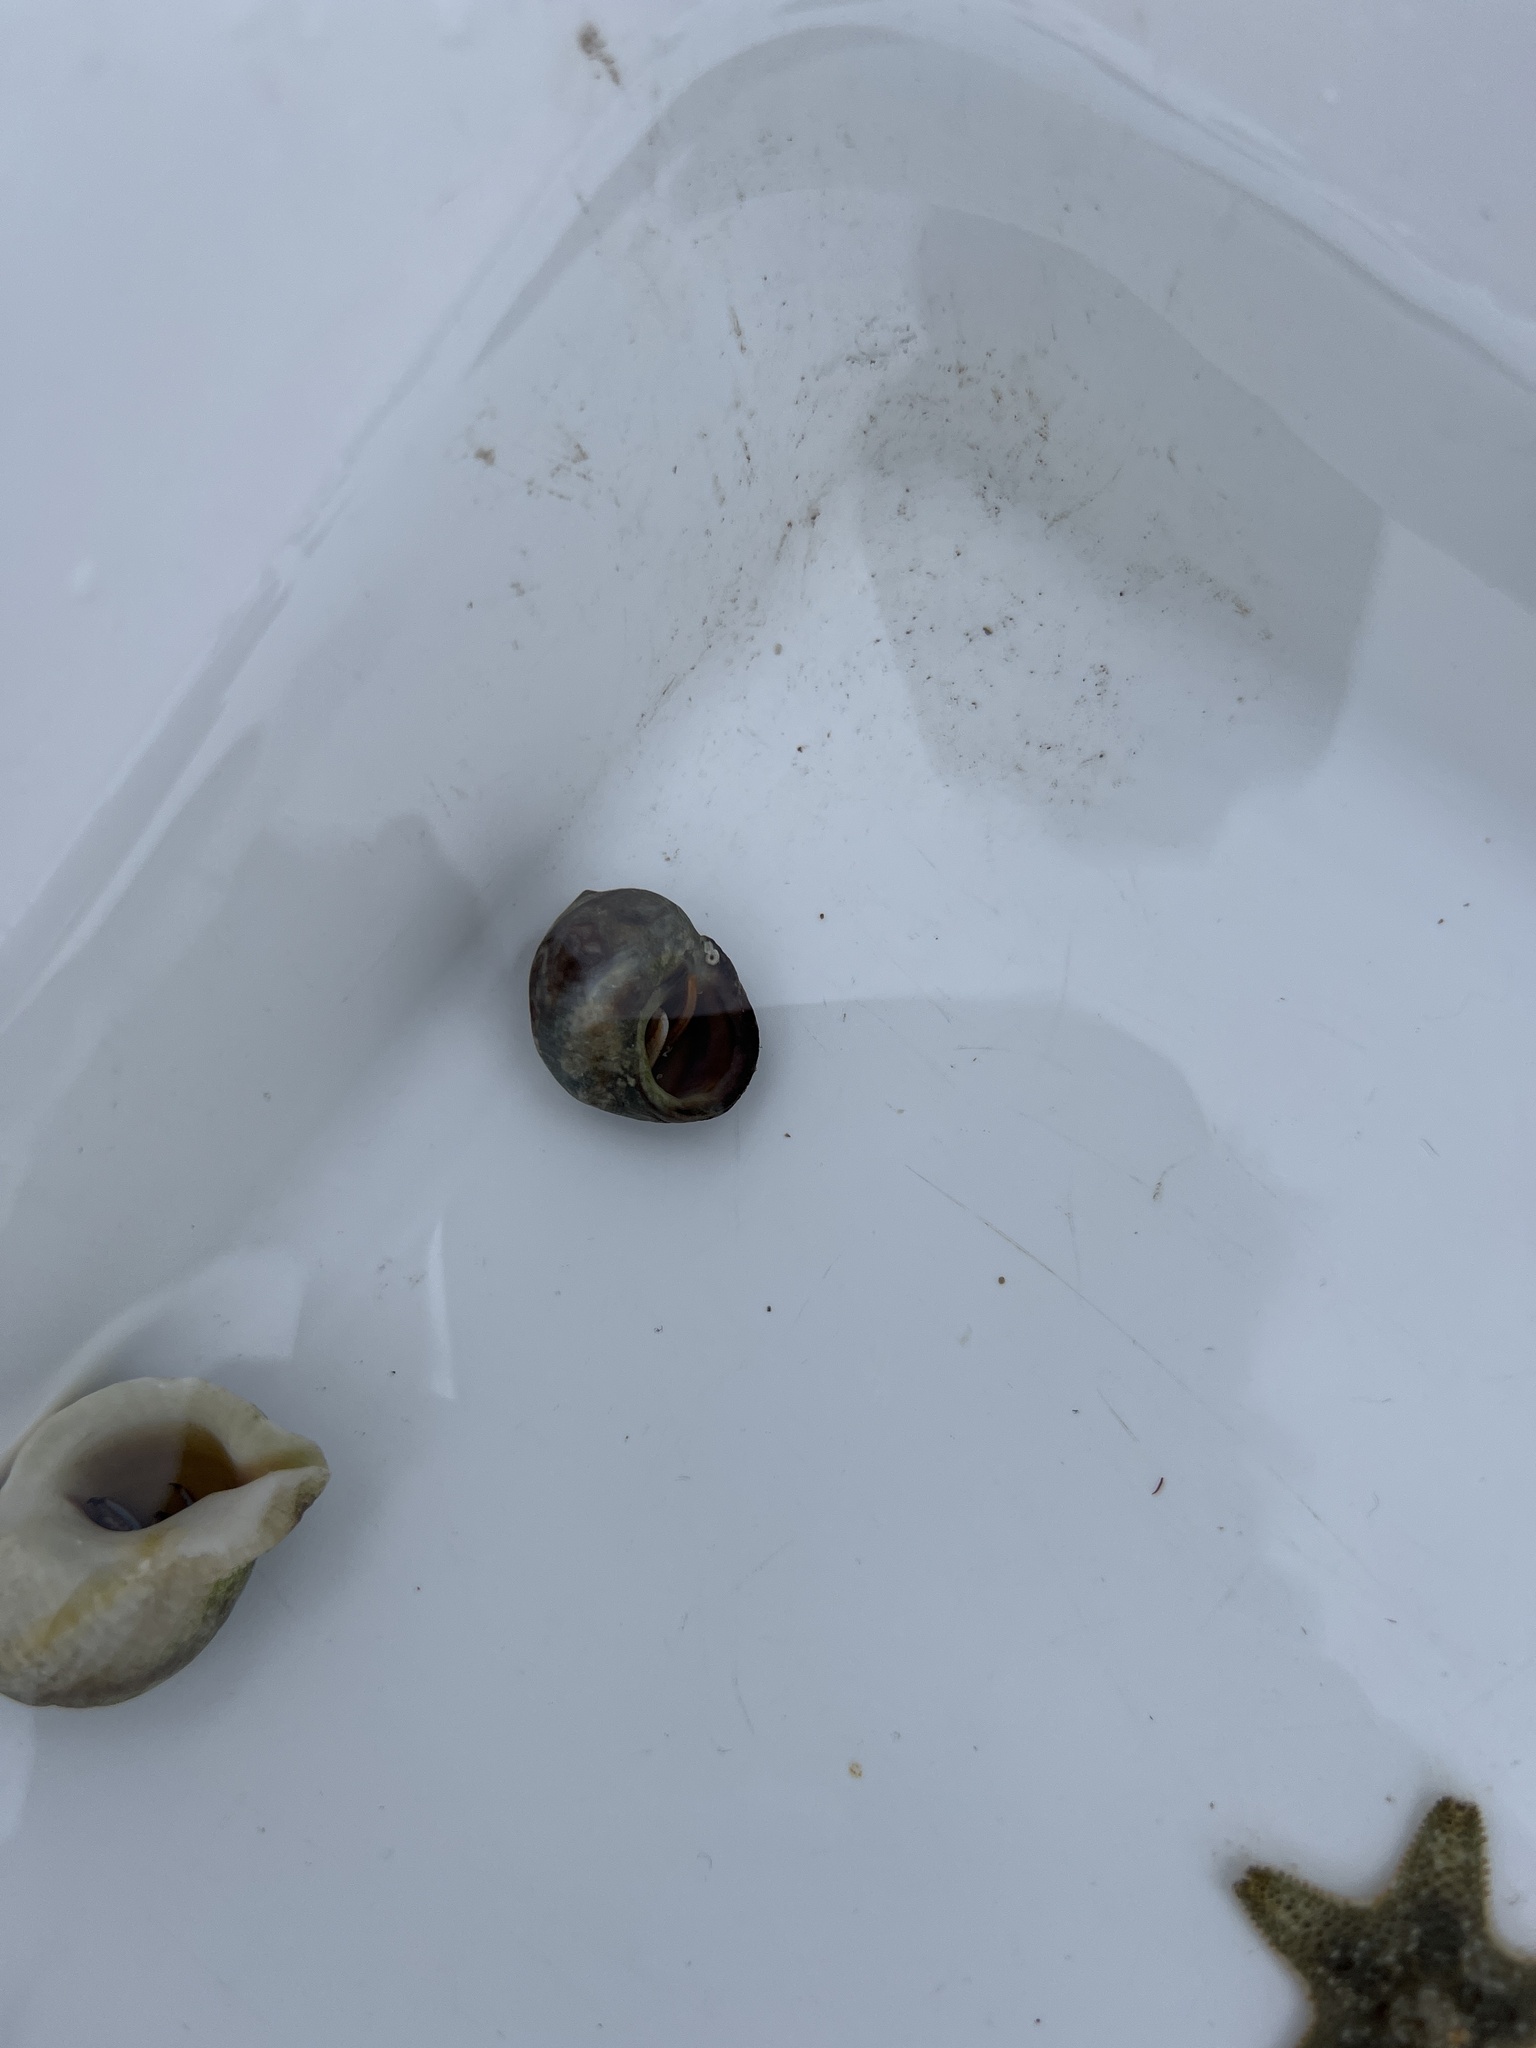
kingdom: Animalia
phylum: Arthropoda
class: Malacostraca
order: Decapoda
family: Paguridae
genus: Pagurus
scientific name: Pagurus bernhardus
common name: Hermit crab
